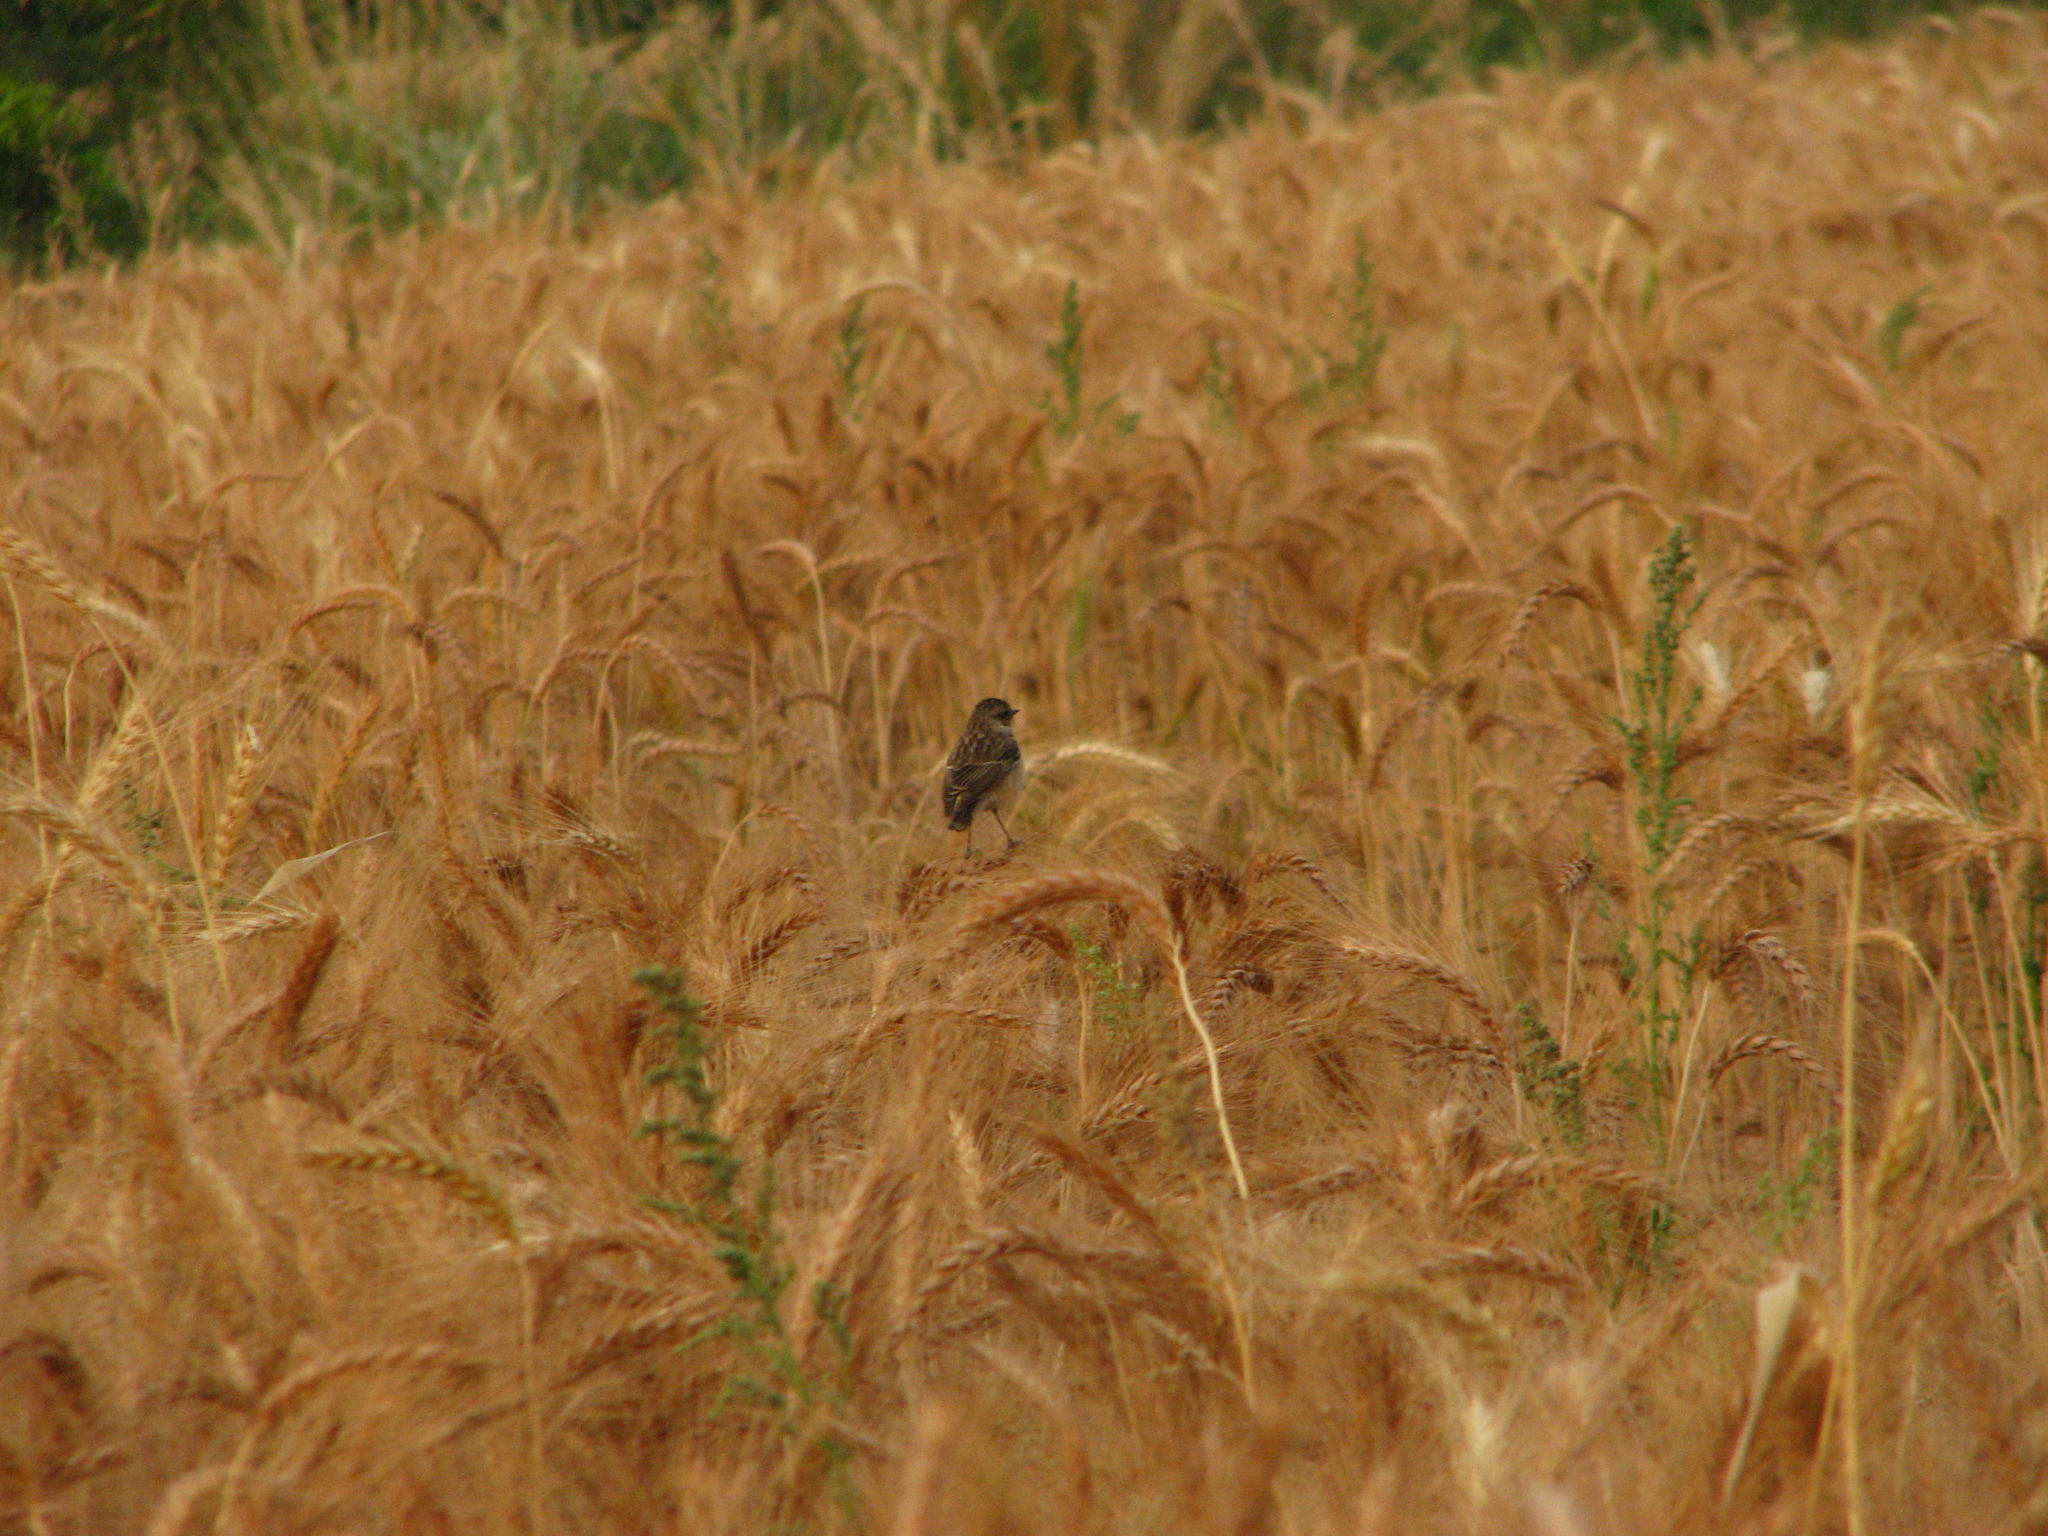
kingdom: Animalia
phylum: Chordata
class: Aves
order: Passeriformes
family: Muscicapidae
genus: Saxicola
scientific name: Saxicola maurus
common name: Siberian stonechat
